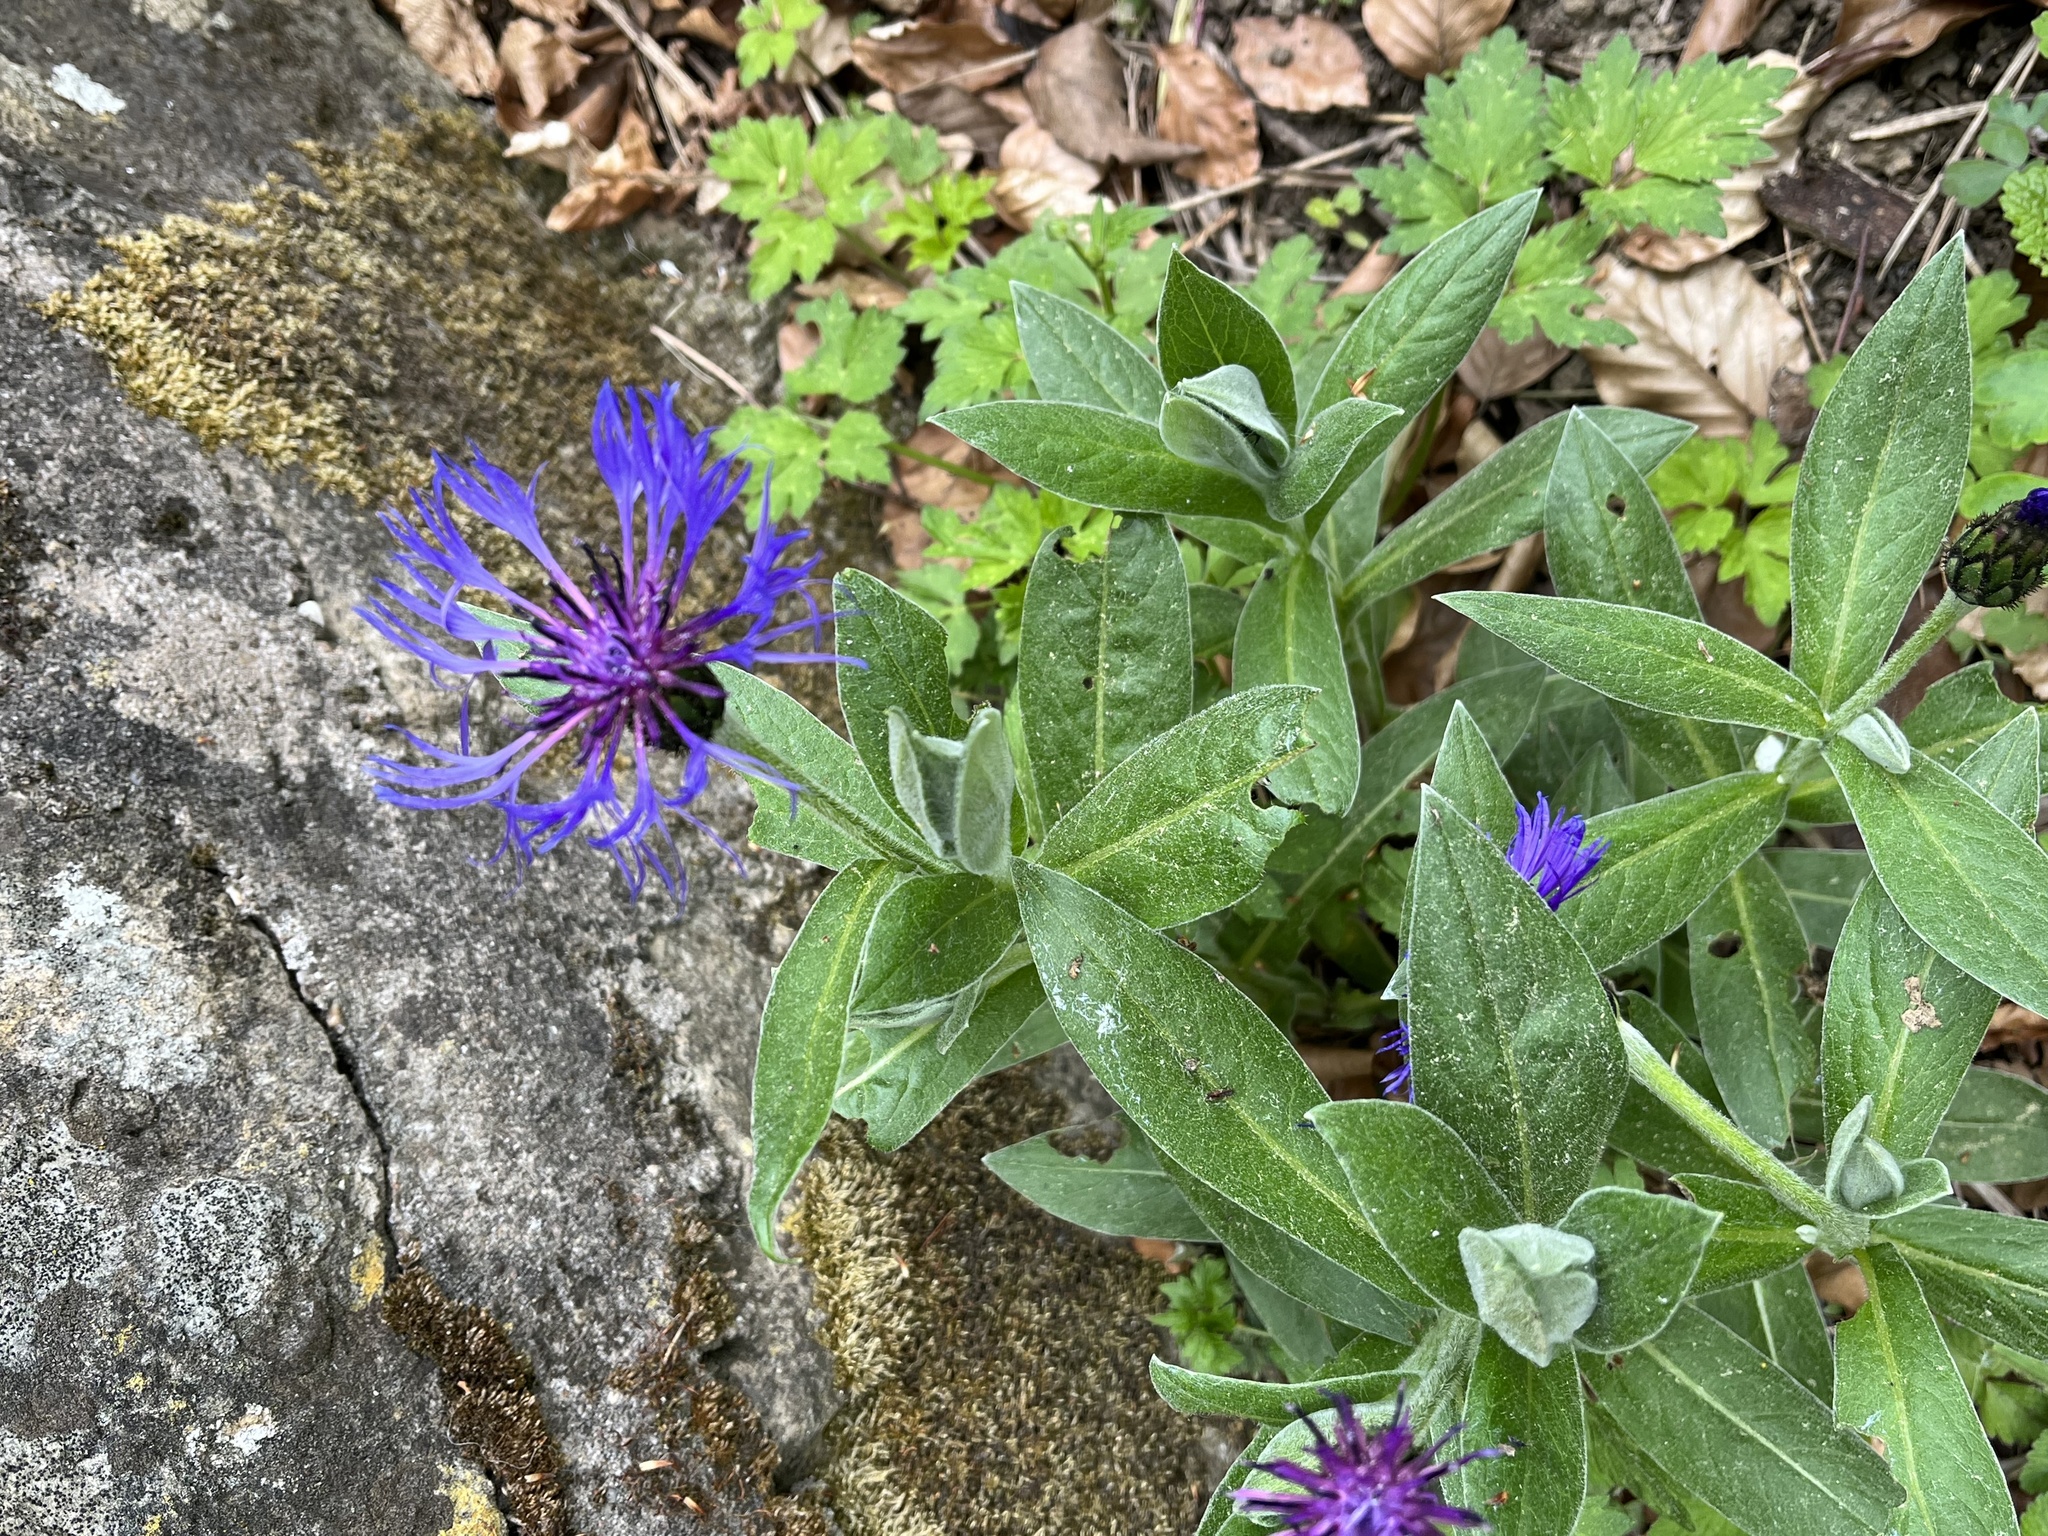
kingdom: Plantae
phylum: Tracheophyta
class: Magnoliopsida
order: Asterales
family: Asteraceae
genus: Centaurea
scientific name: Centaurea montana
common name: Perennial cornflower
